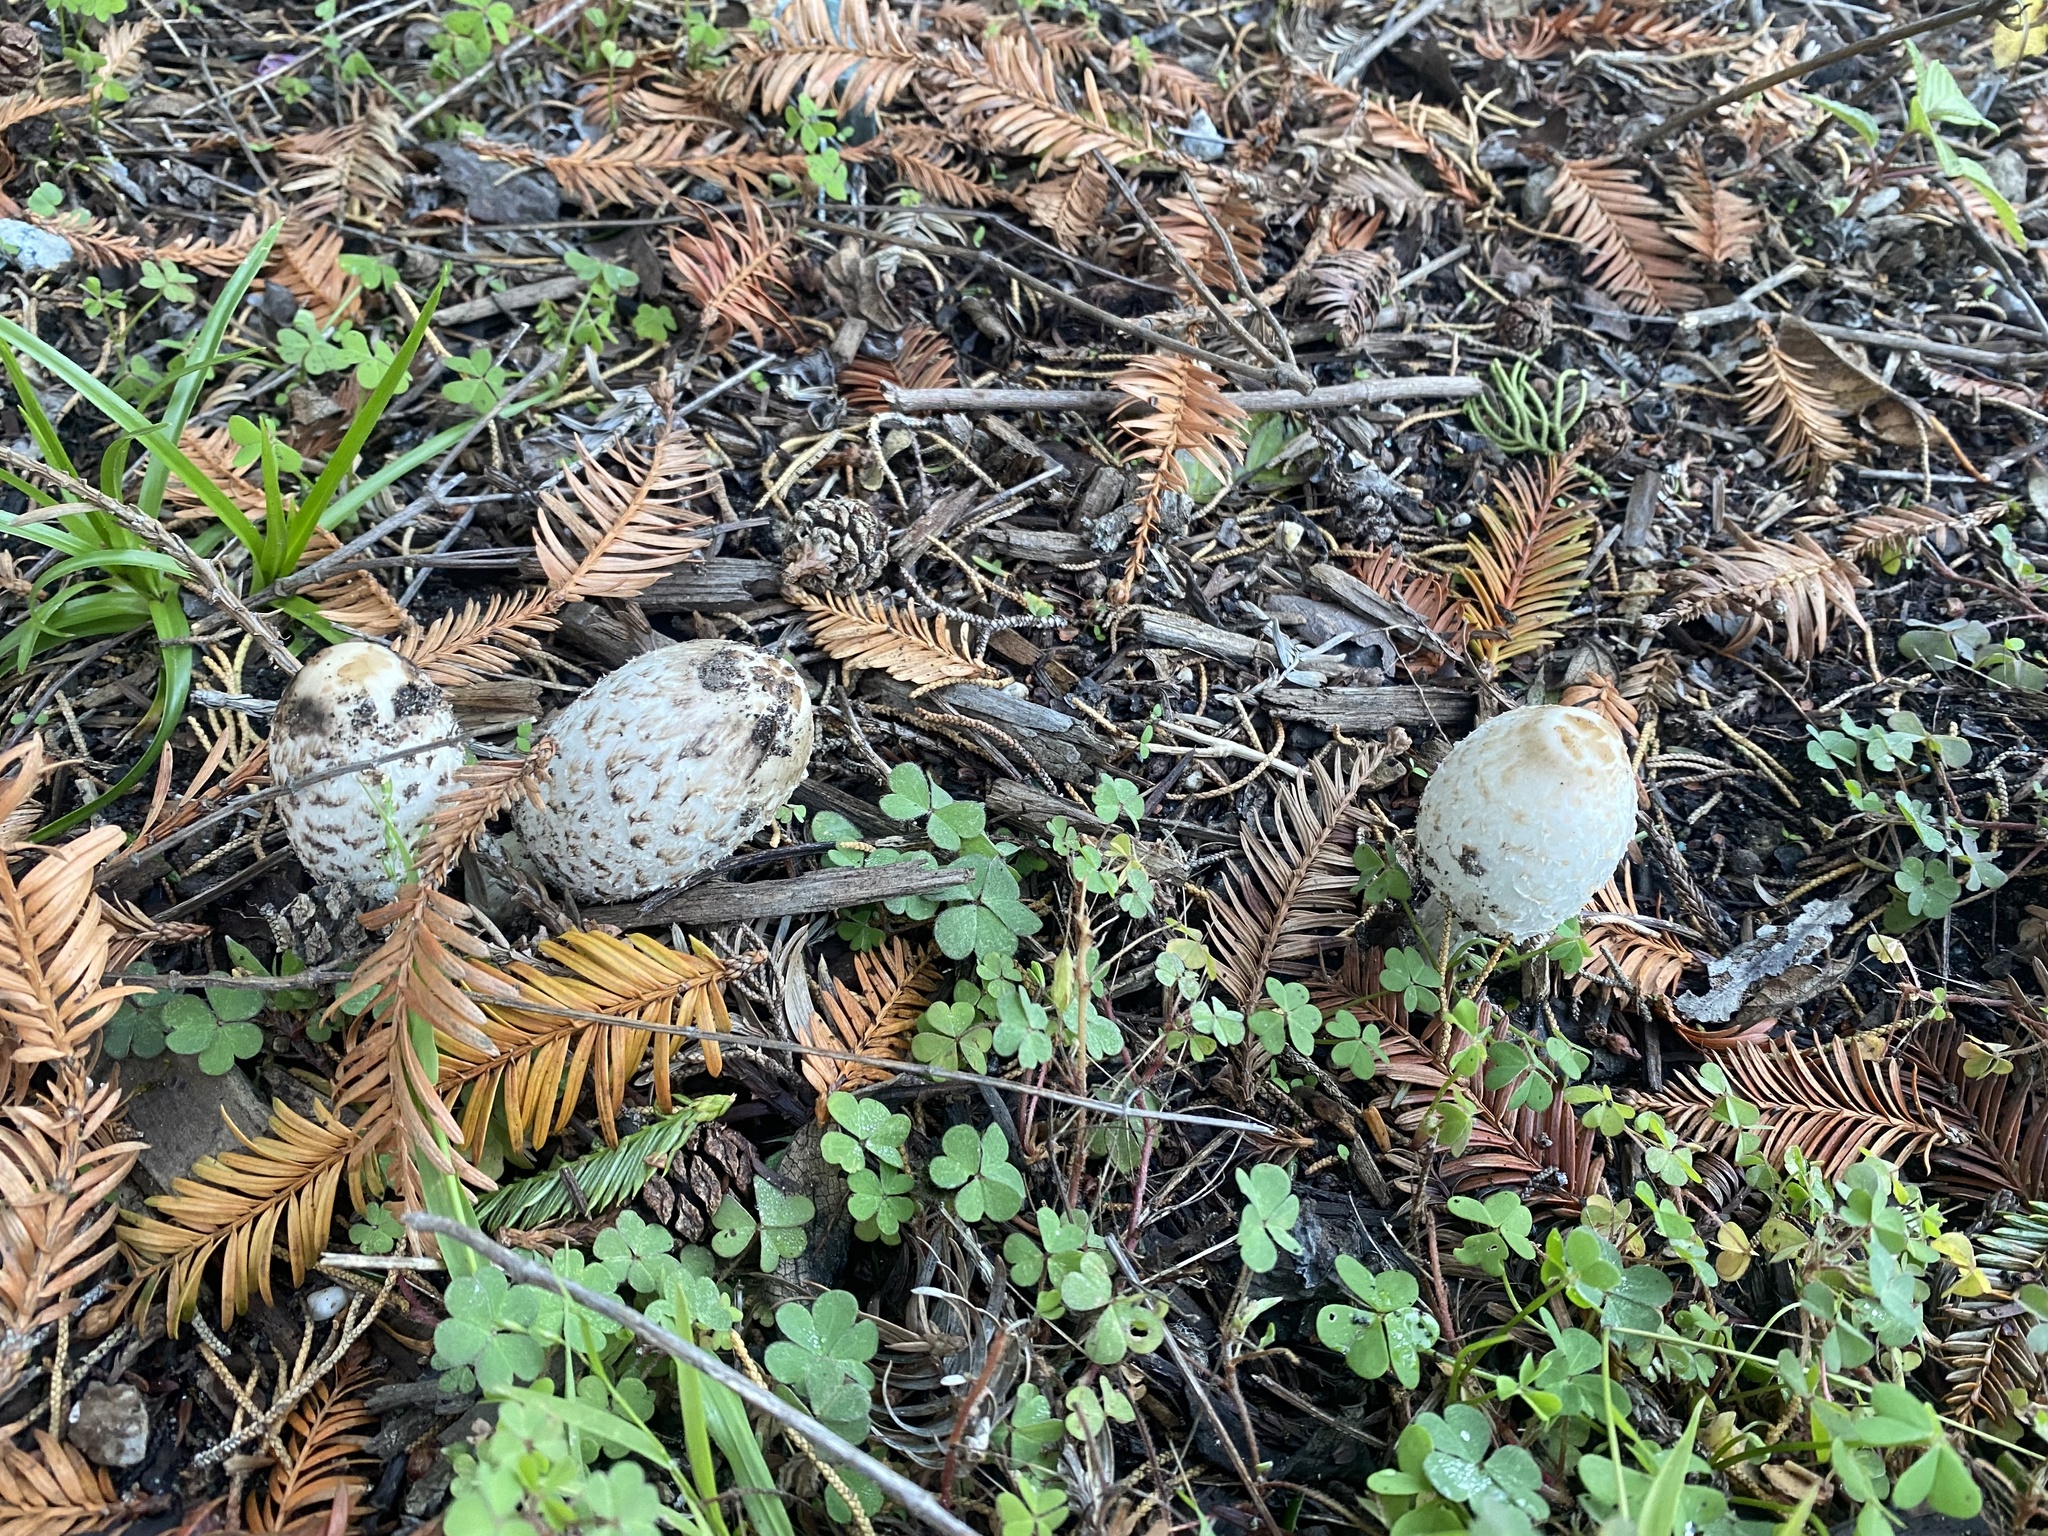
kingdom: Fungi
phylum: Basidiomycota
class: Agaricomycetes
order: Agaricales
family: Agaricaceae
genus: Coprinus
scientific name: Coprinus comatus
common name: Lawyer's wig
